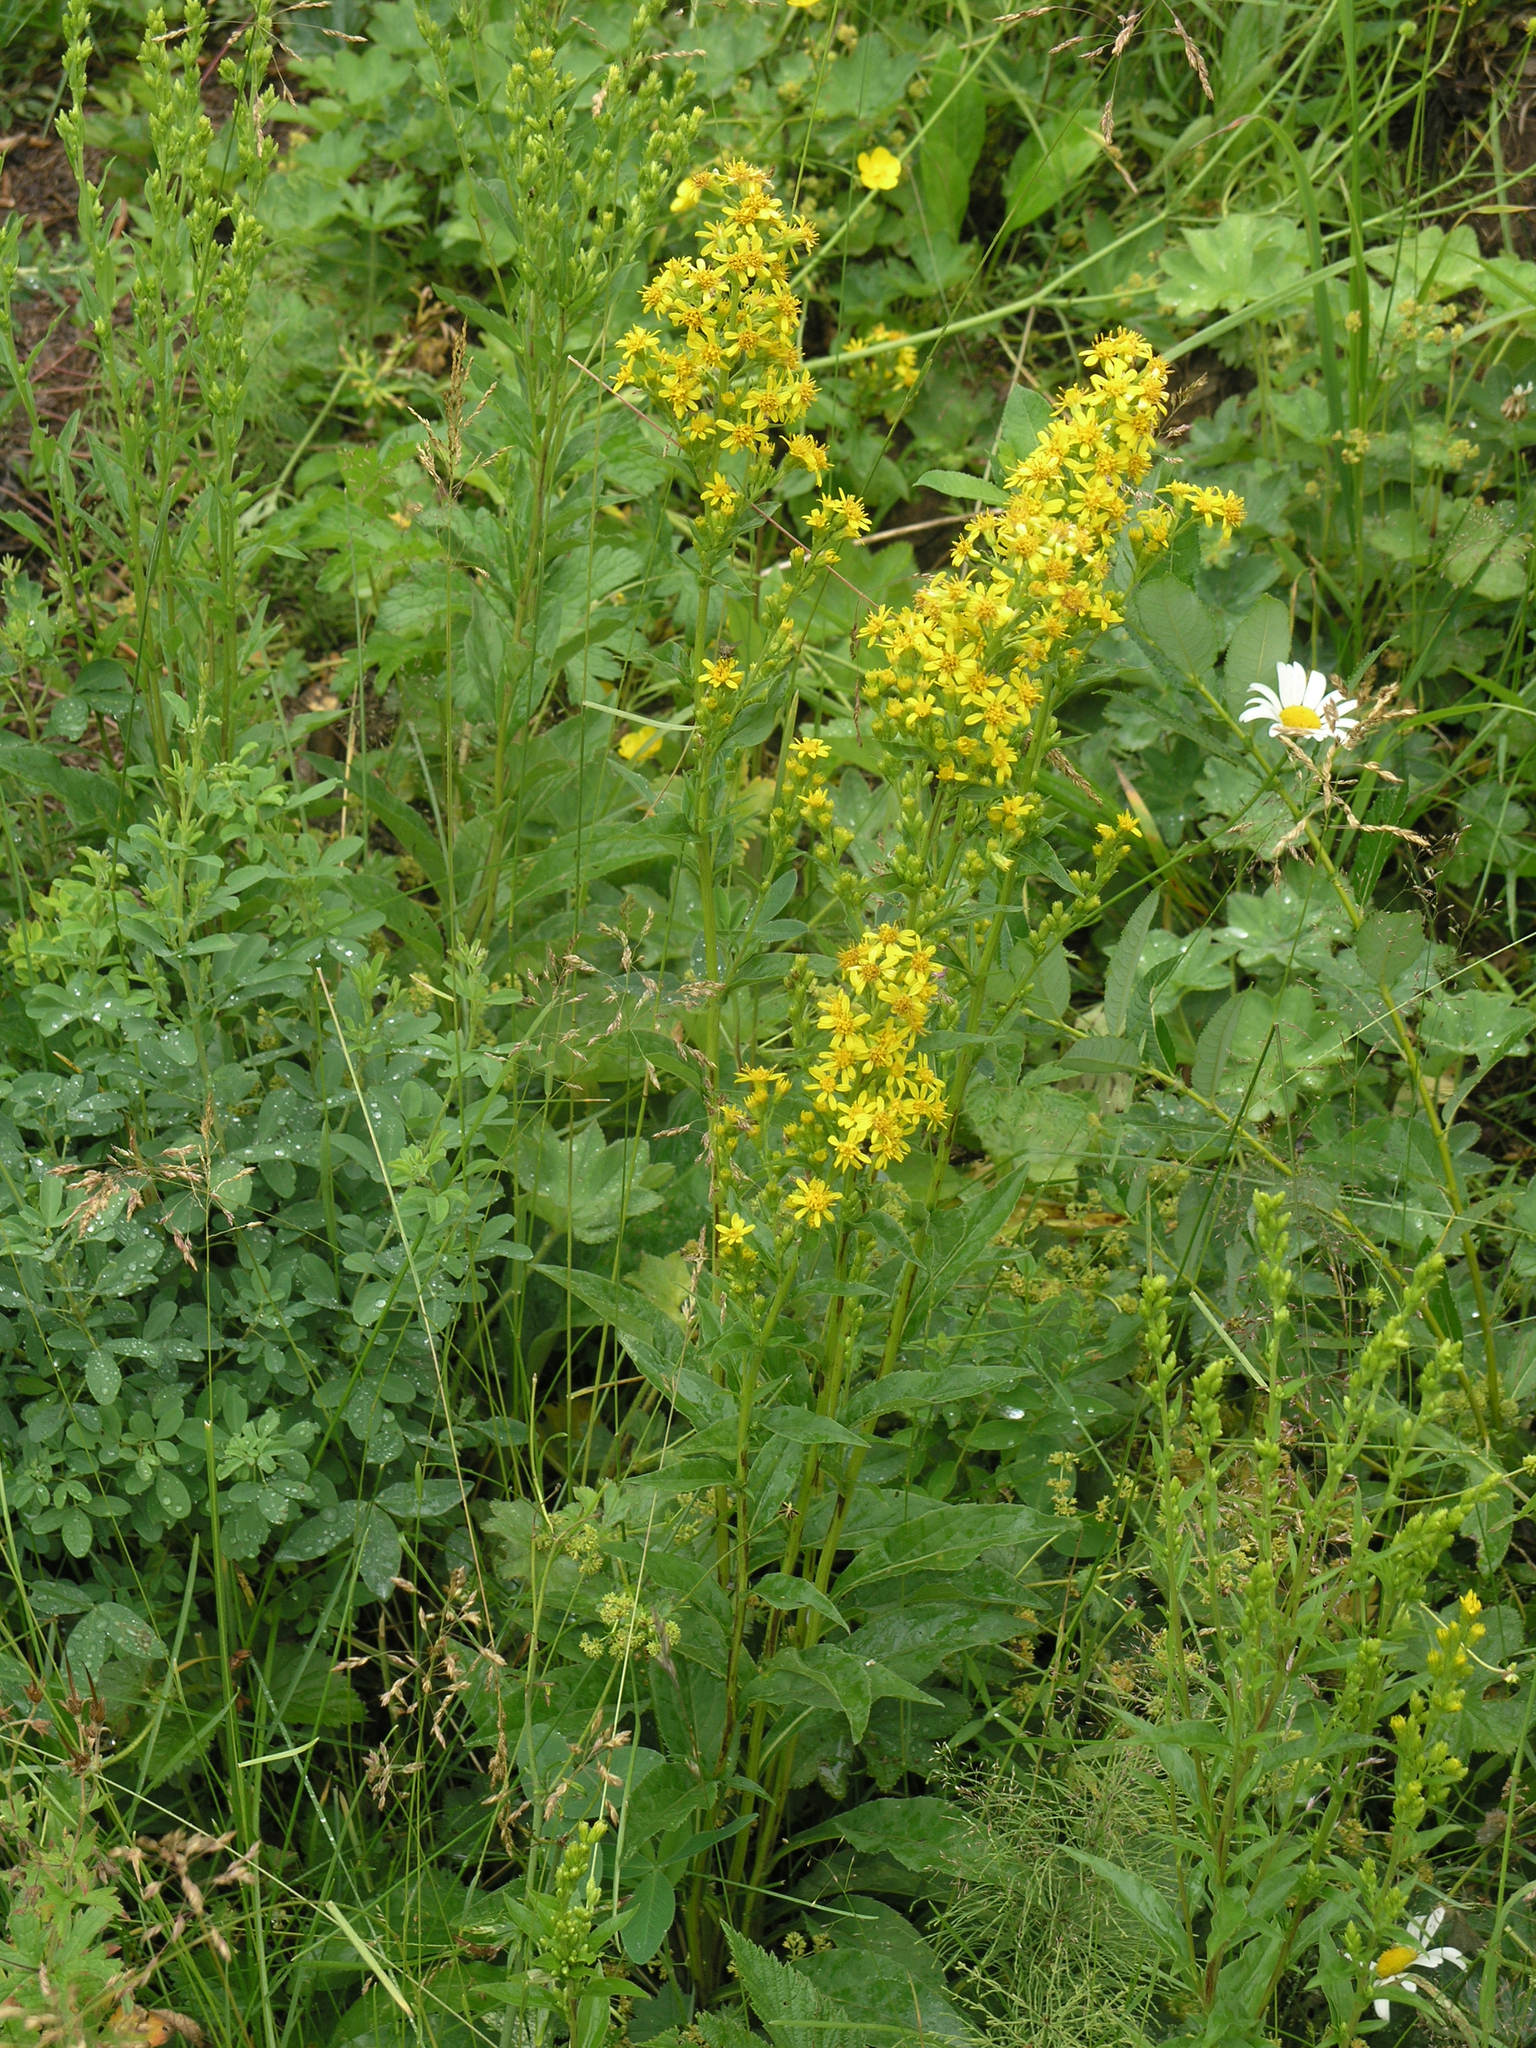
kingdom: Plantae
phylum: Tracheophyta
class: Magnoliopsida
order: Asterales
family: Asteraceae
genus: Solidago
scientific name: Solidago virgaurea
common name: Goldenrod
